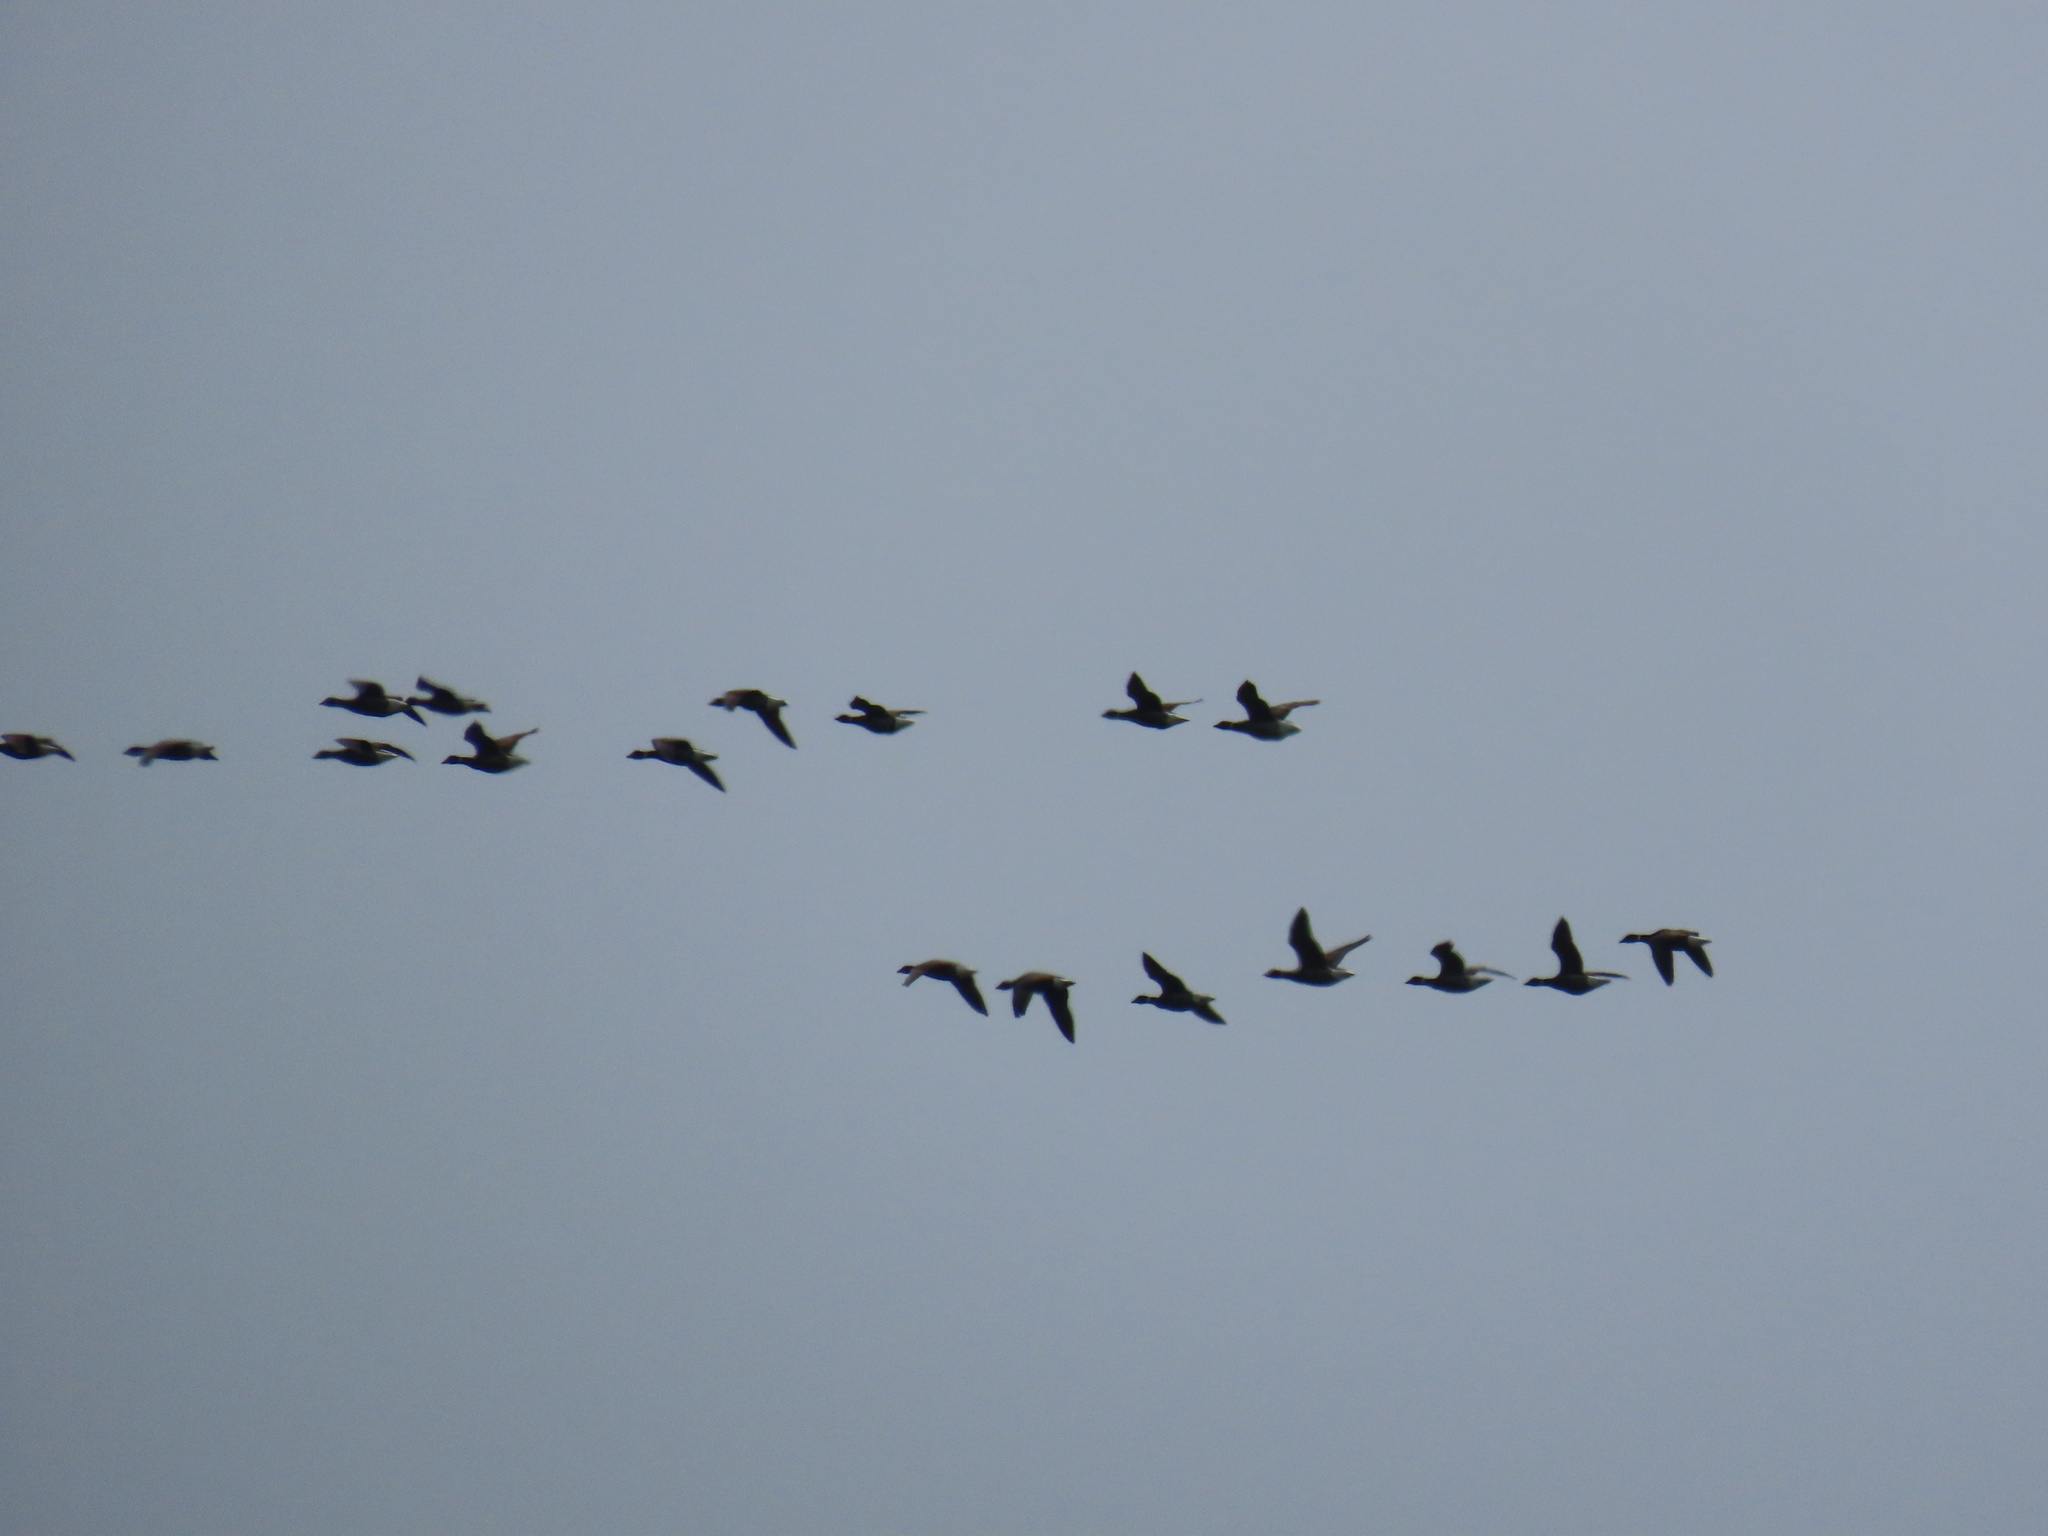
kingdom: Animalia
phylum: Chordata
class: Aves
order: Anseriformes
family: Anatidae
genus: Branta
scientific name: Branta bernicla
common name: Brant goose
